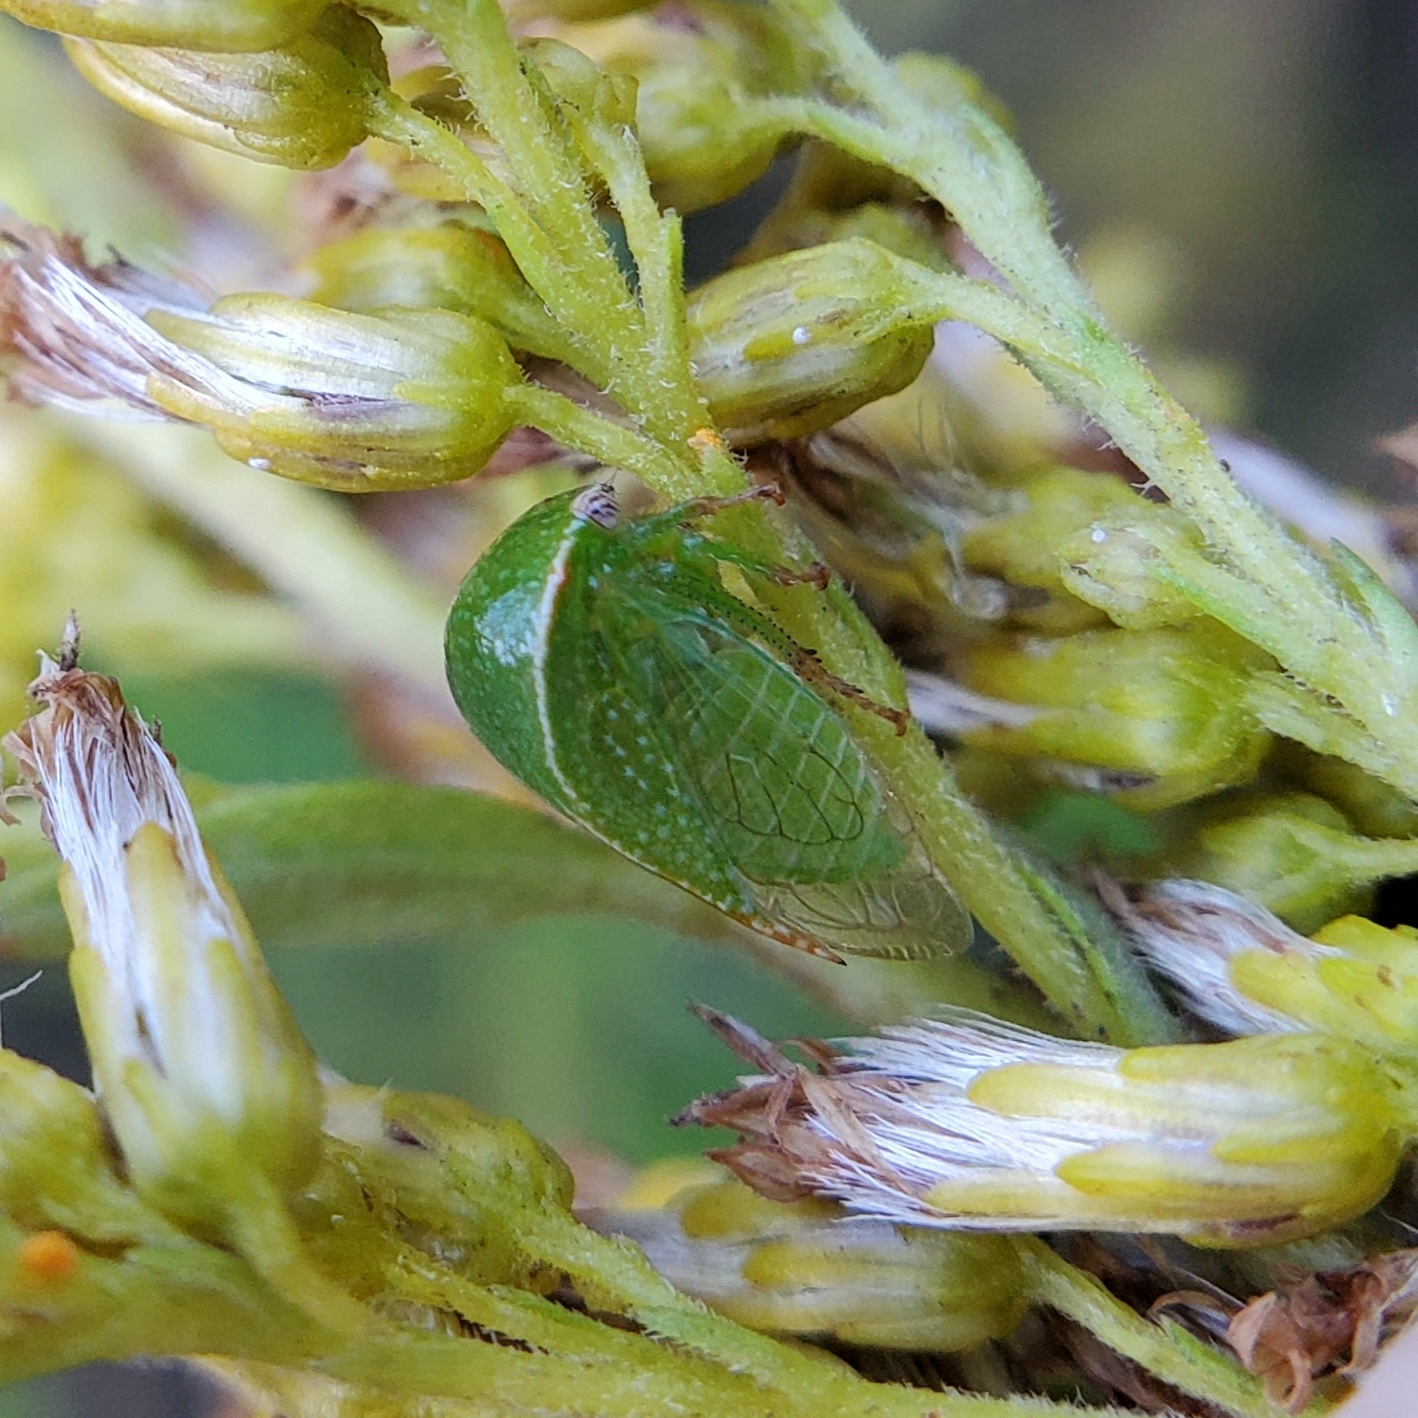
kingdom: Animalia
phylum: Arthropoda
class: Insecta
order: Hemiptera
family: Membracidae
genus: Spissistilus
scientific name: Spissistilus festina
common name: Membracid bug
